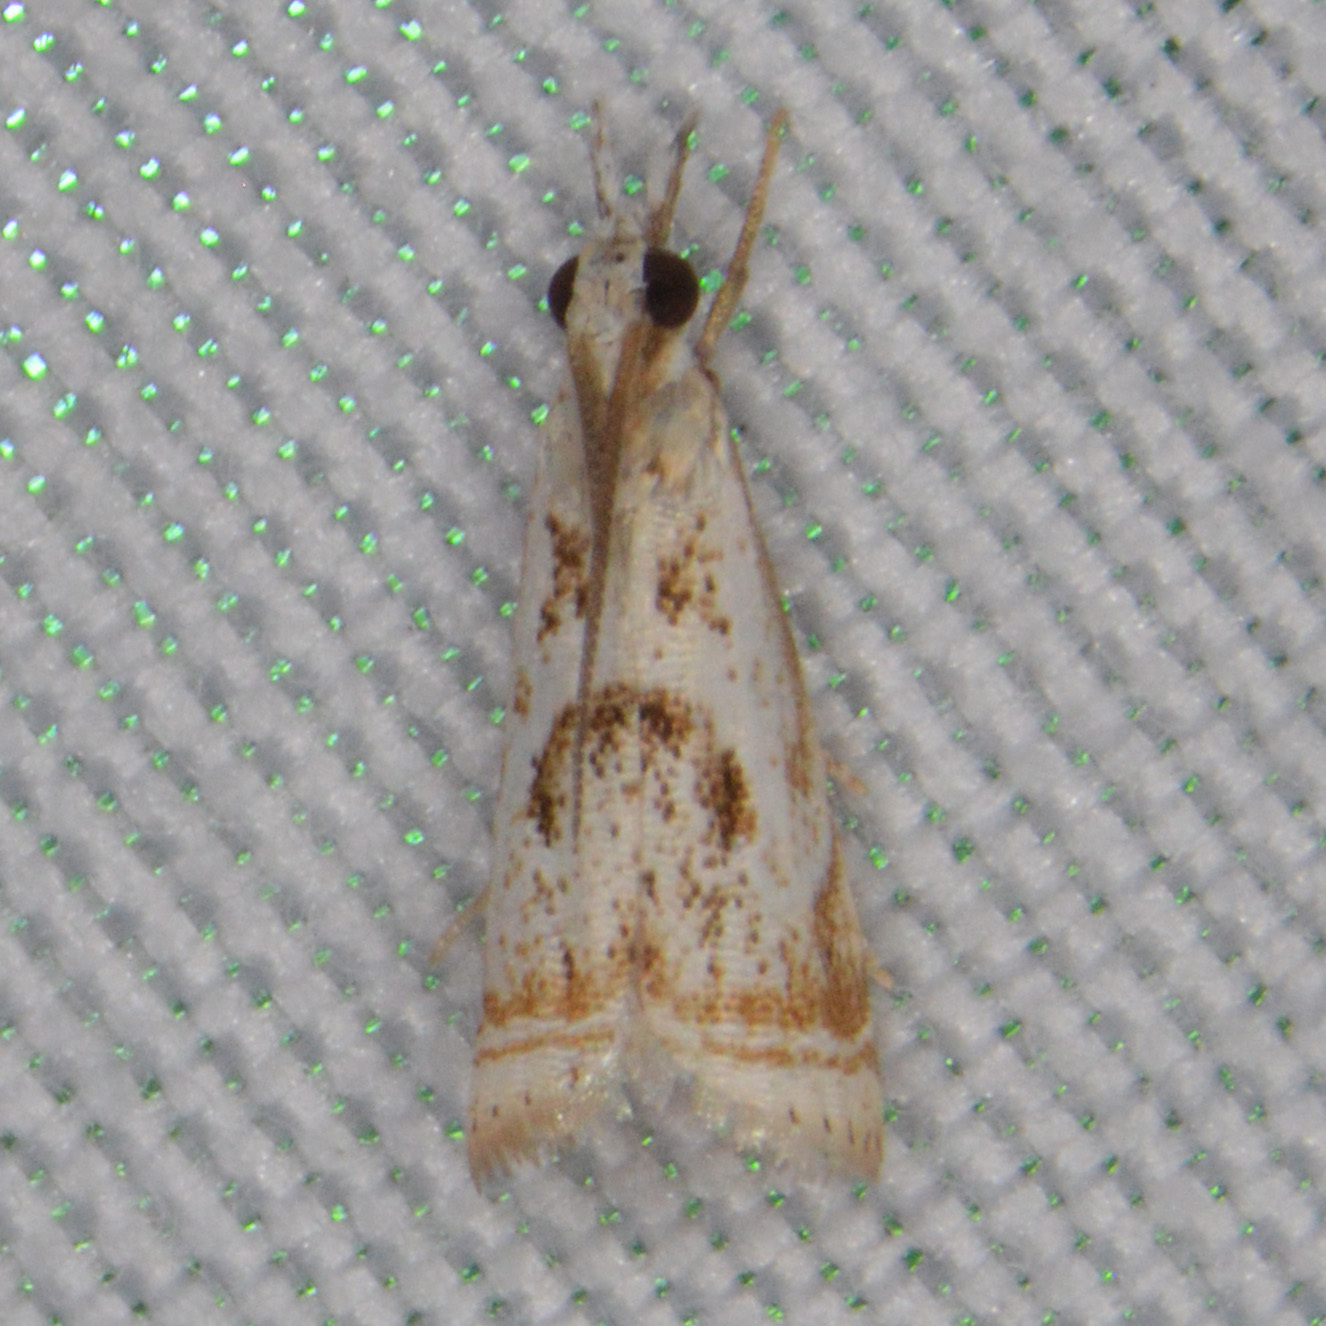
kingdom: Animalia
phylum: Arthropoda
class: Insecta
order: Lepidoptera
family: Crambidae
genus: Microcrambus
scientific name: Microcrambus elegans
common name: Elegant grass-veneer
